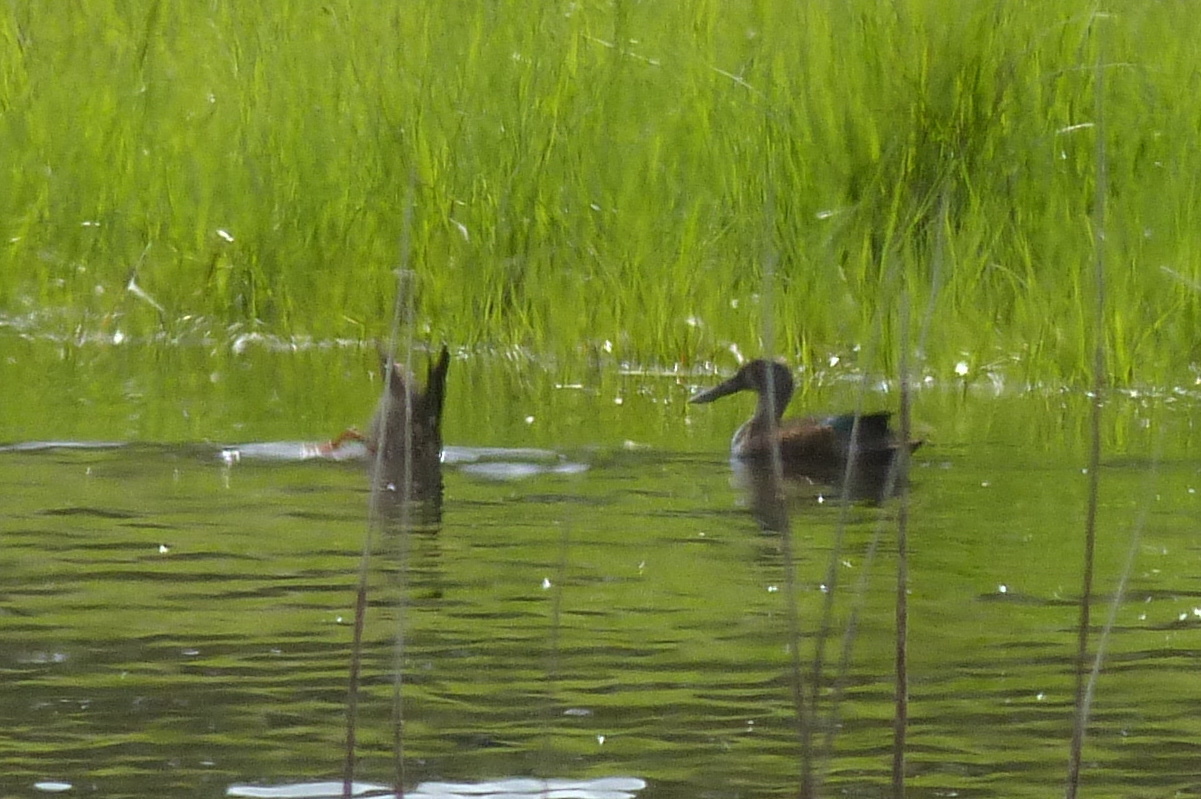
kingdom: Animalia
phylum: Chordata
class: Aves
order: Anseriformes
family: Anatidae
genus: Spatula
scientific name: Spatula rhynchotis
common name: Australian shoveler
